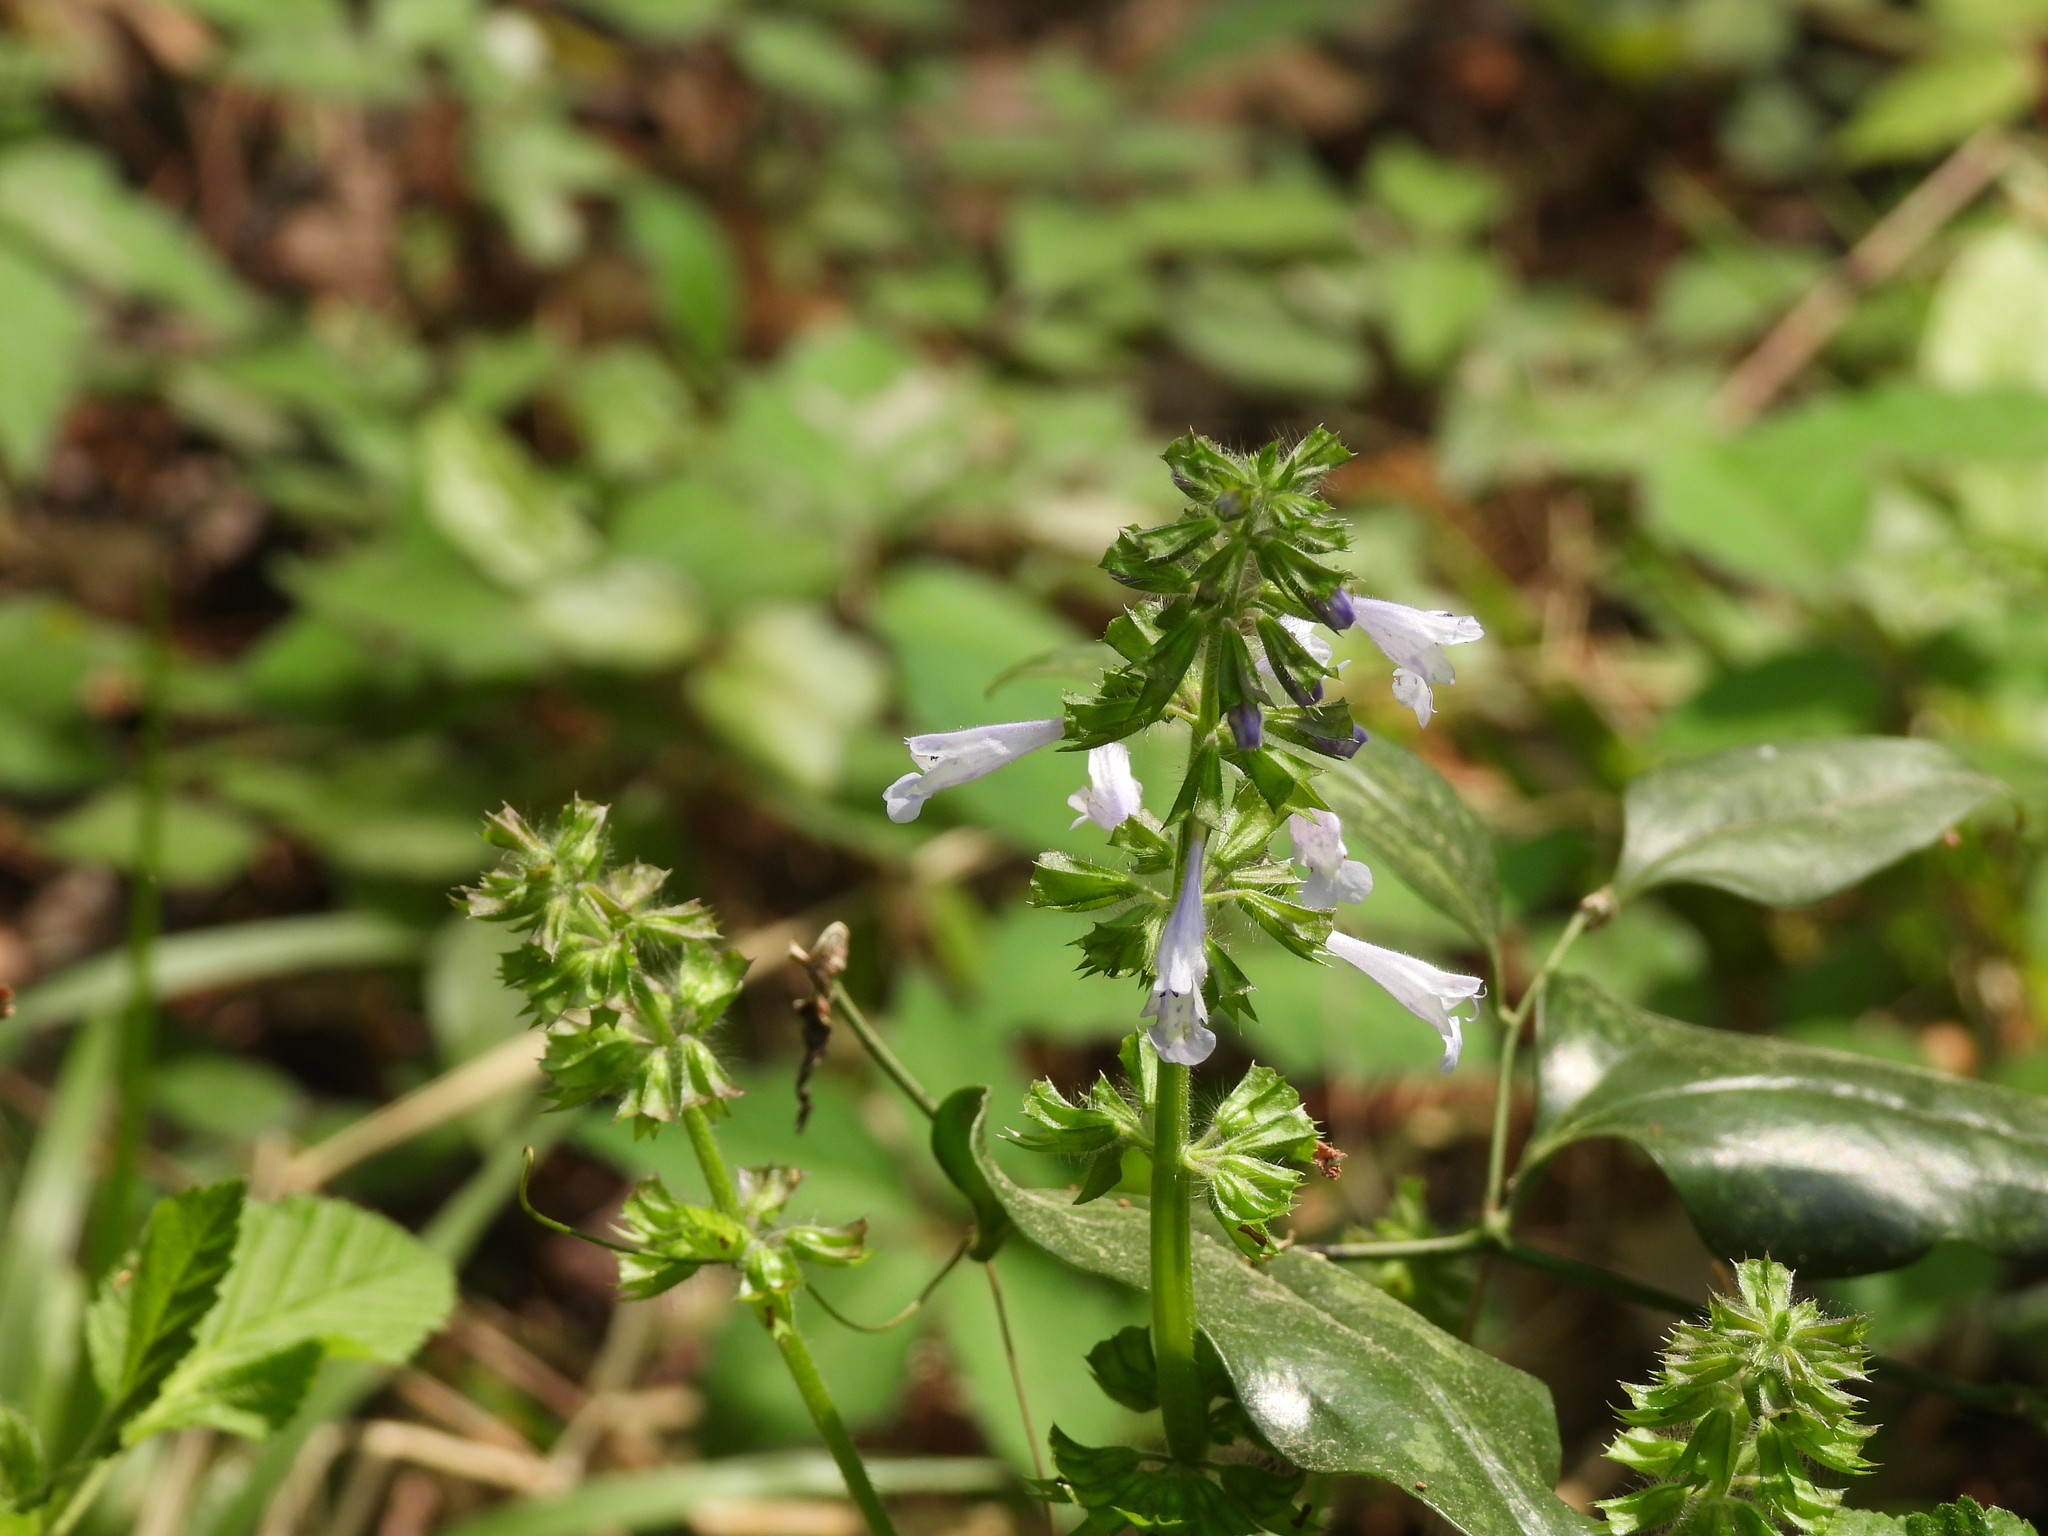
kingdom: Plantae
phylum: Tracheophyta
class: Magnoliopsida
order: Lamiales
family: Lamiaceae
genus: Salvia
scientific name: Salvia lyrata
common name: Cancerweed
